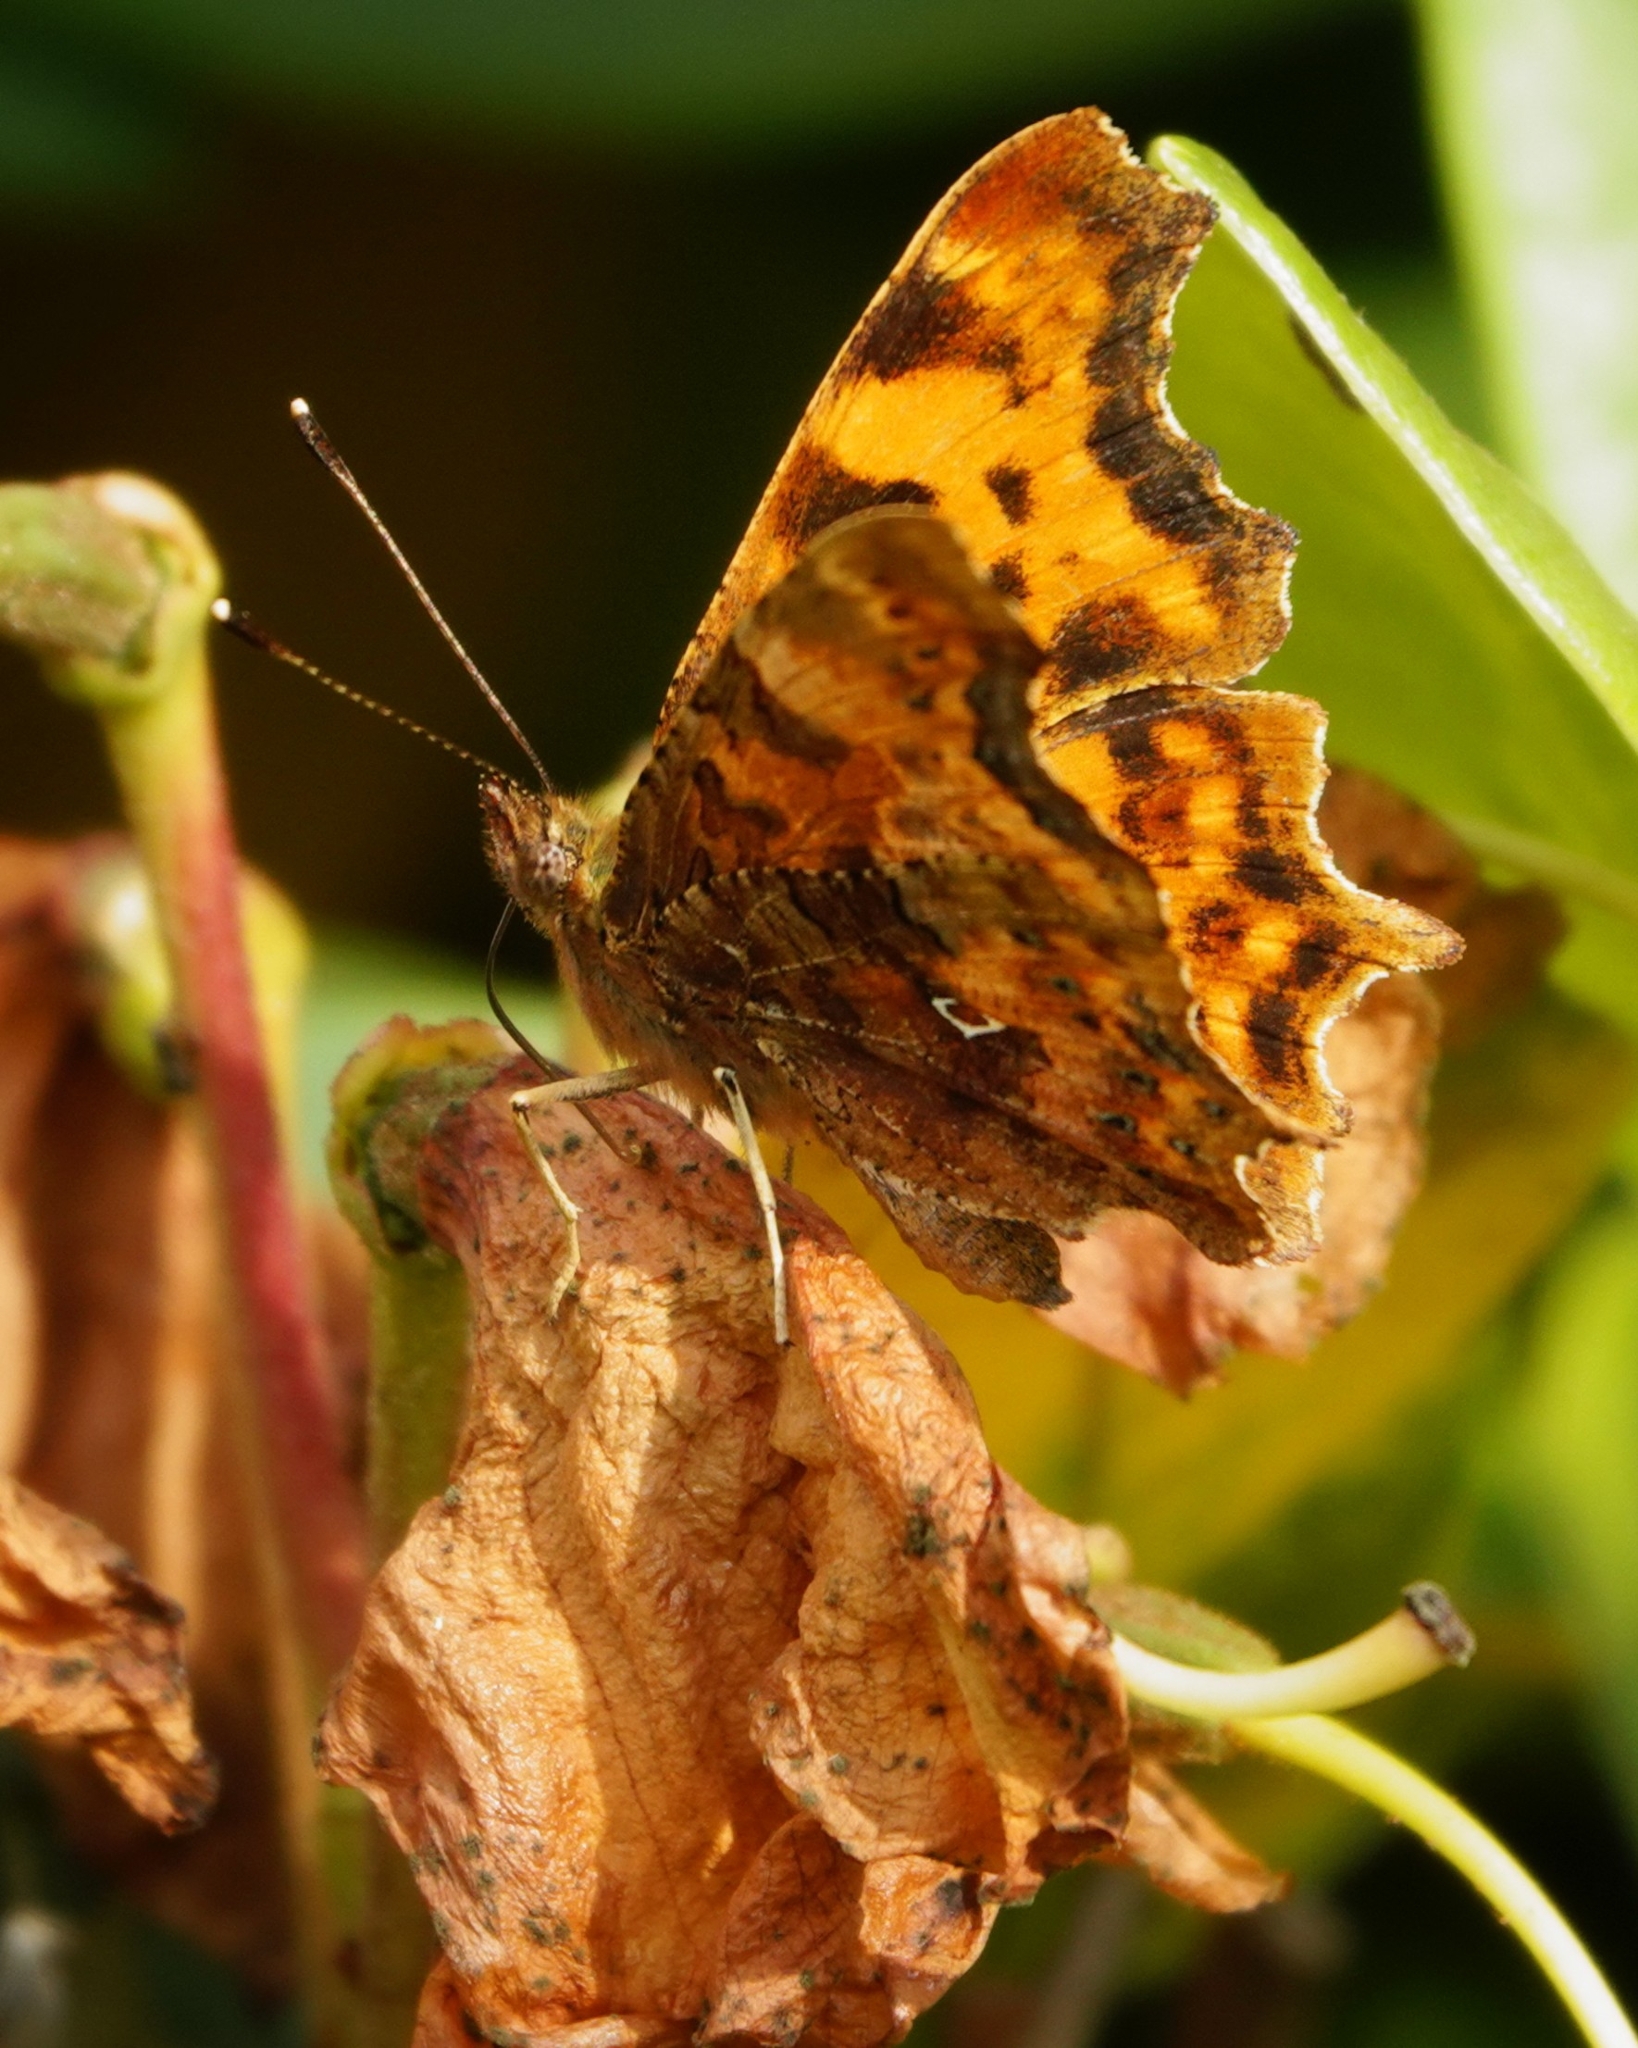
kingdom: Animalia
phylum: Arthropoda
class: Insecta
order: Lepidoptera
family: Nymphalidae
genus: Polygonia
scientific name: Polygonia c-album
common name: Comma
